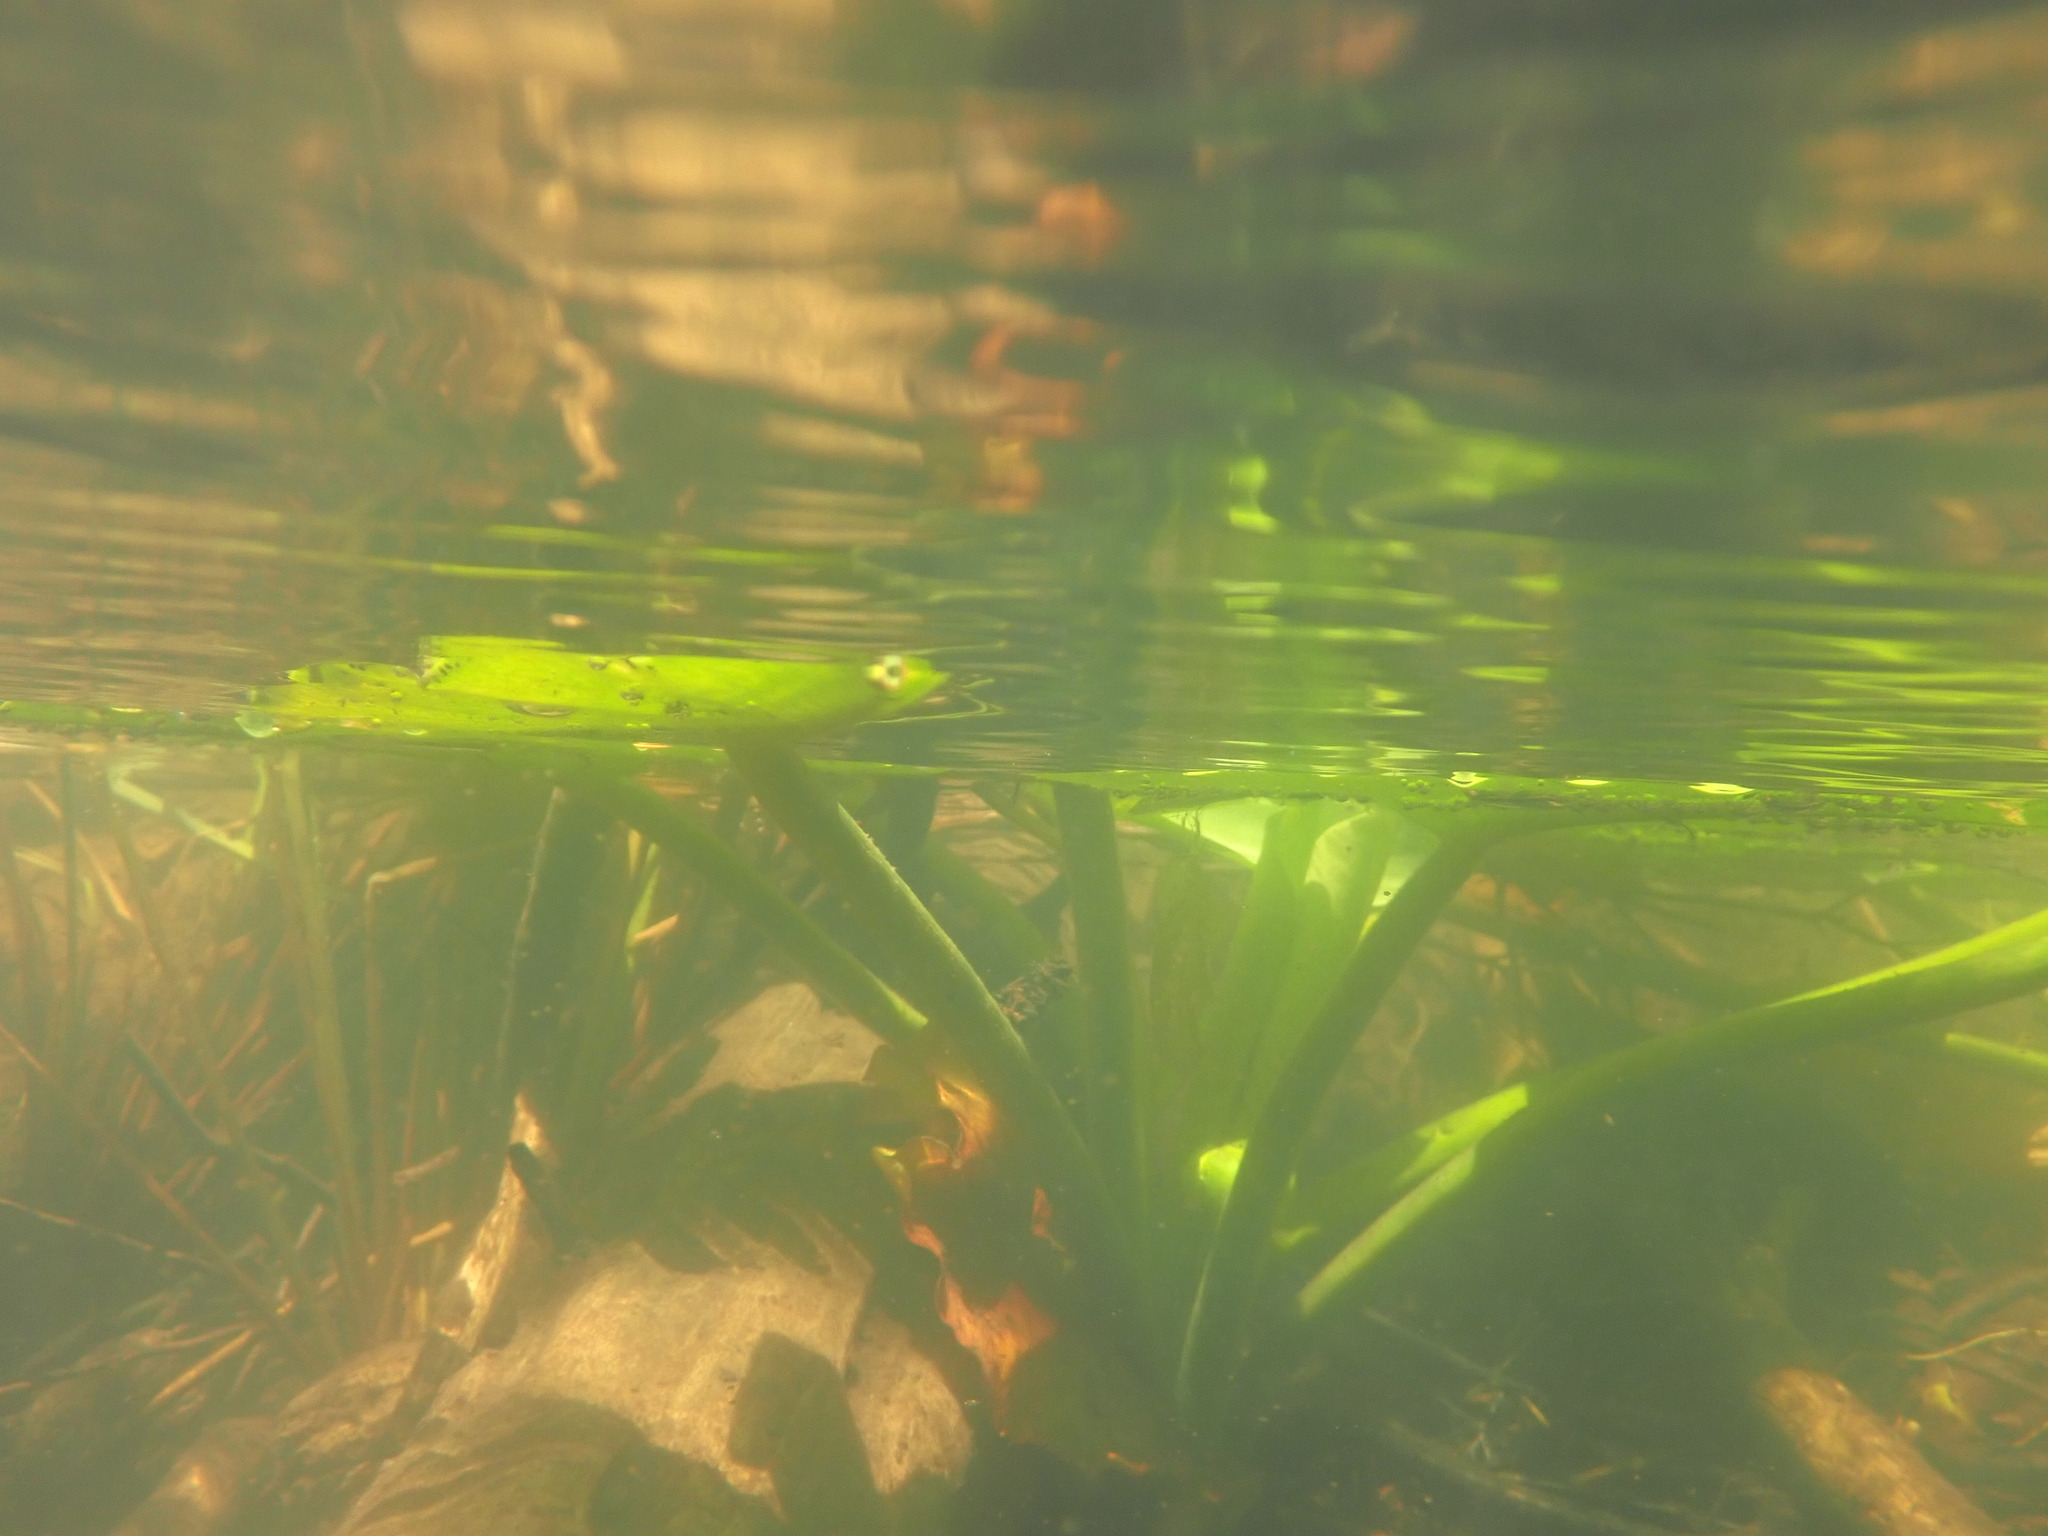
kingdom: Plantae
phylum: Tracheophyta
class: Magnoliopsida
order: Nymphaeales
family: Nymphaeaceae
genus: Nuphar
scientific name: Nuphar polysepala
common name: Rocky mountain cow-lily
